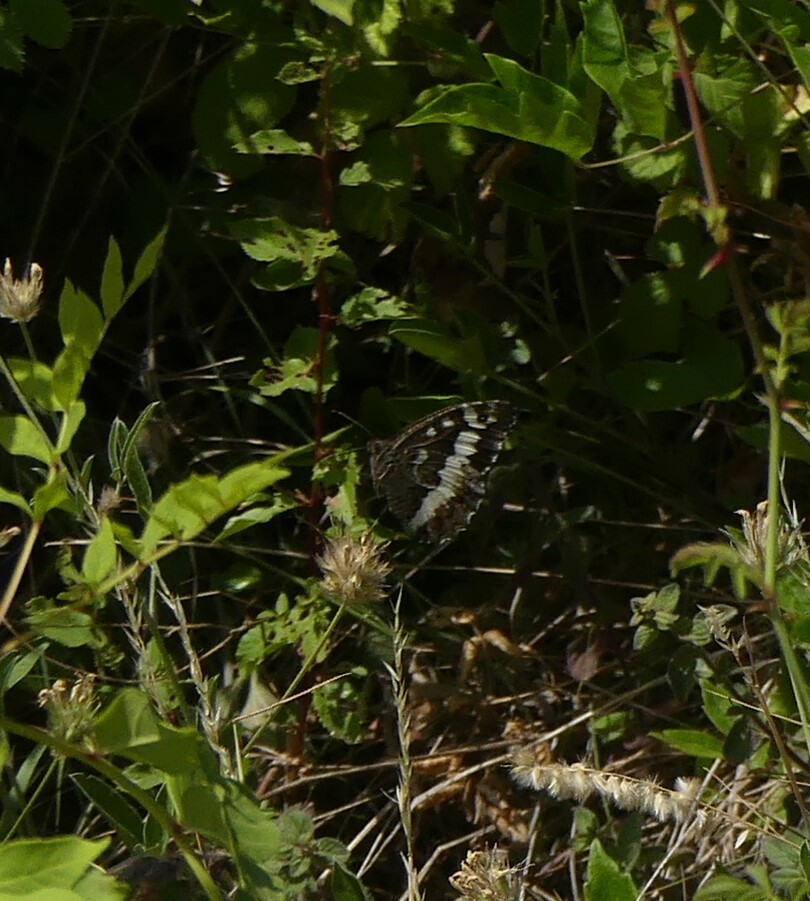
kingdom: Animalia
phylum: Arthropoda
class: Insecta
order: Lepidoptera
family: Lycaenidae
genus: Loweia
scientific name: Loweia tityrus
